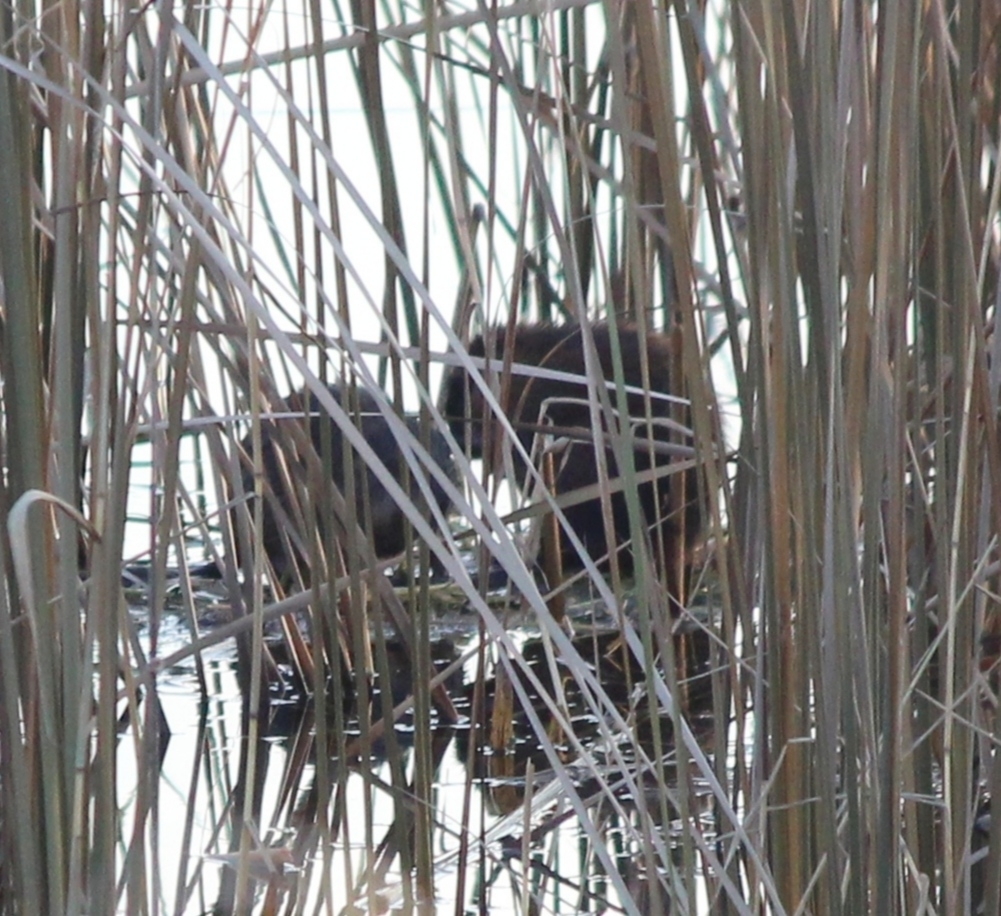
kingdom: Animalia
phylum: Chordata
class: Mammalia
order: Rodentia
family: Cricetidae
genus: Ondatra
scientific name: Ondatra zibethicus
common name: Muskrat
